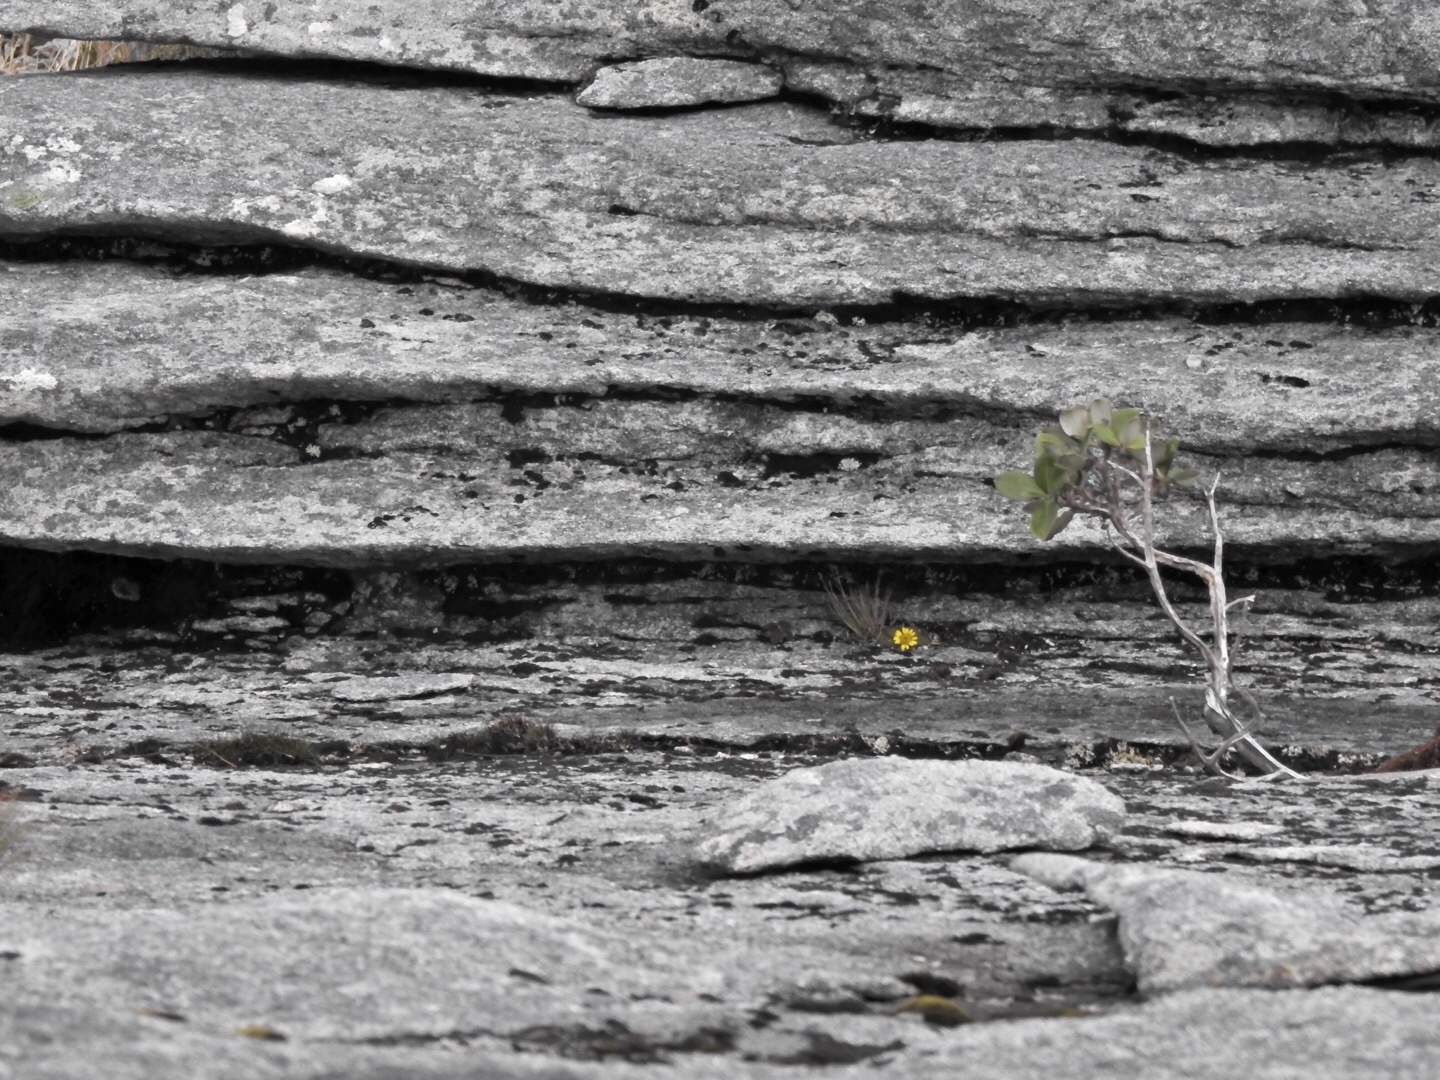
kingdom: Plantae
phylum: Tracheophyta
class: Magnoliopsida
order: Asterales
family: Asteraceae
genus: Brachyglottis
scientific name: Brachyglottis bellidioides
